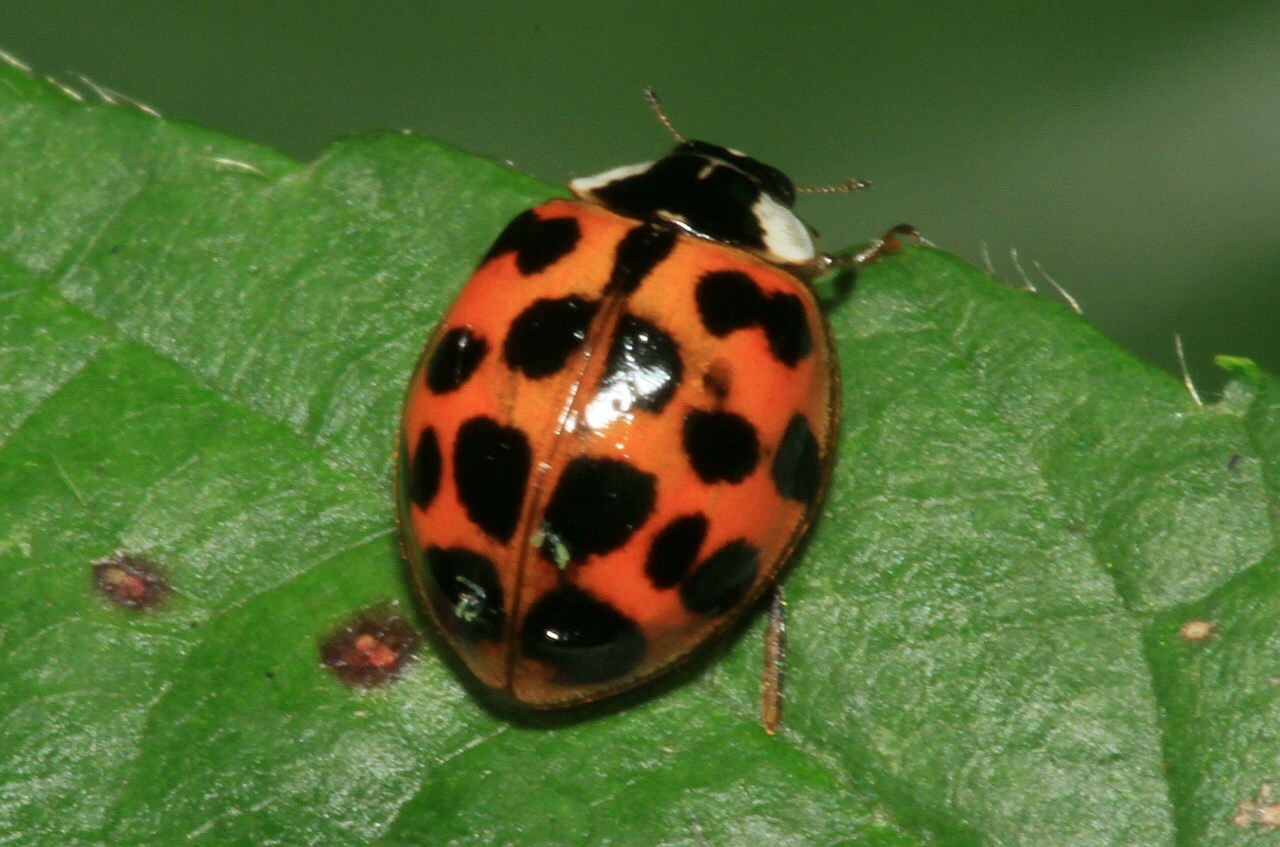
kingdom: Animalia
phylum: Arthropoda
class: Insecta
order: Coleoptera
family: Coccinellidae
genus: Harmonia
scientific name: Harmonia axyridis
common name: Harlequin ladybird
